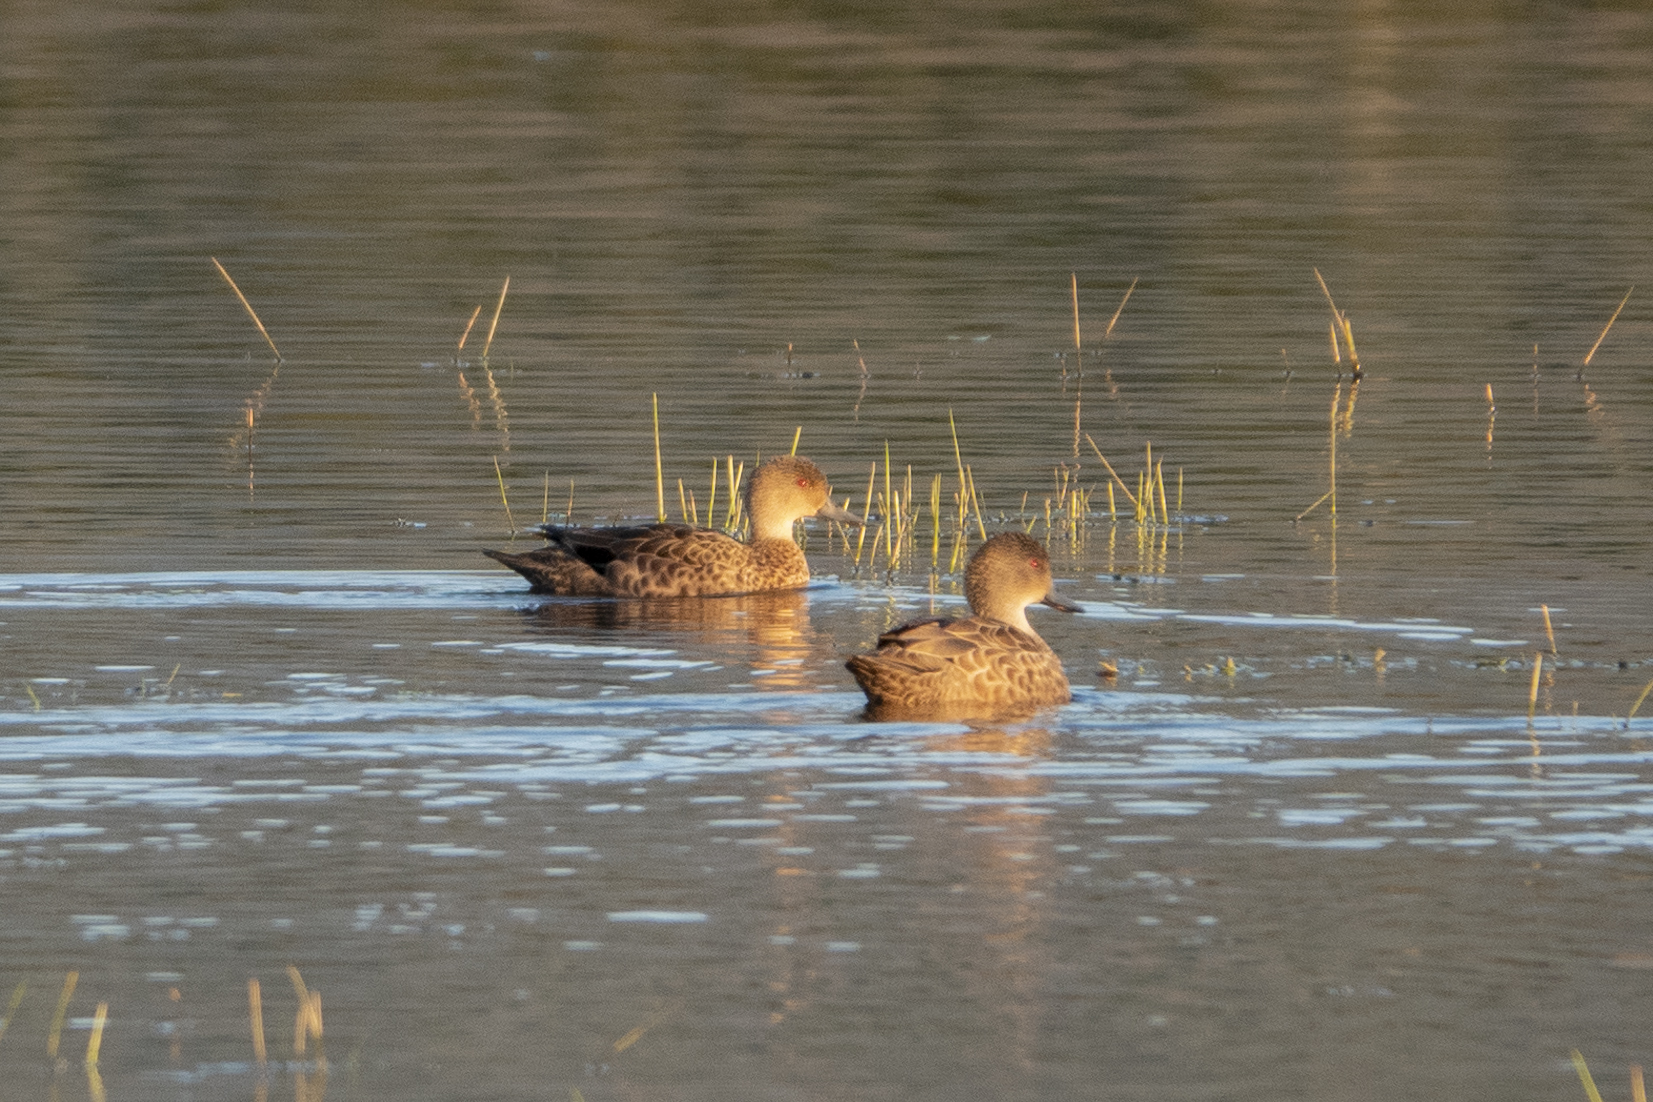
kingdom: Animalia
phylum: Chordata
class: Aves
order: Anseriformes
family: Anatidae
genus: Anas
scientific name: Anas gracilis
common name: Grey teal
